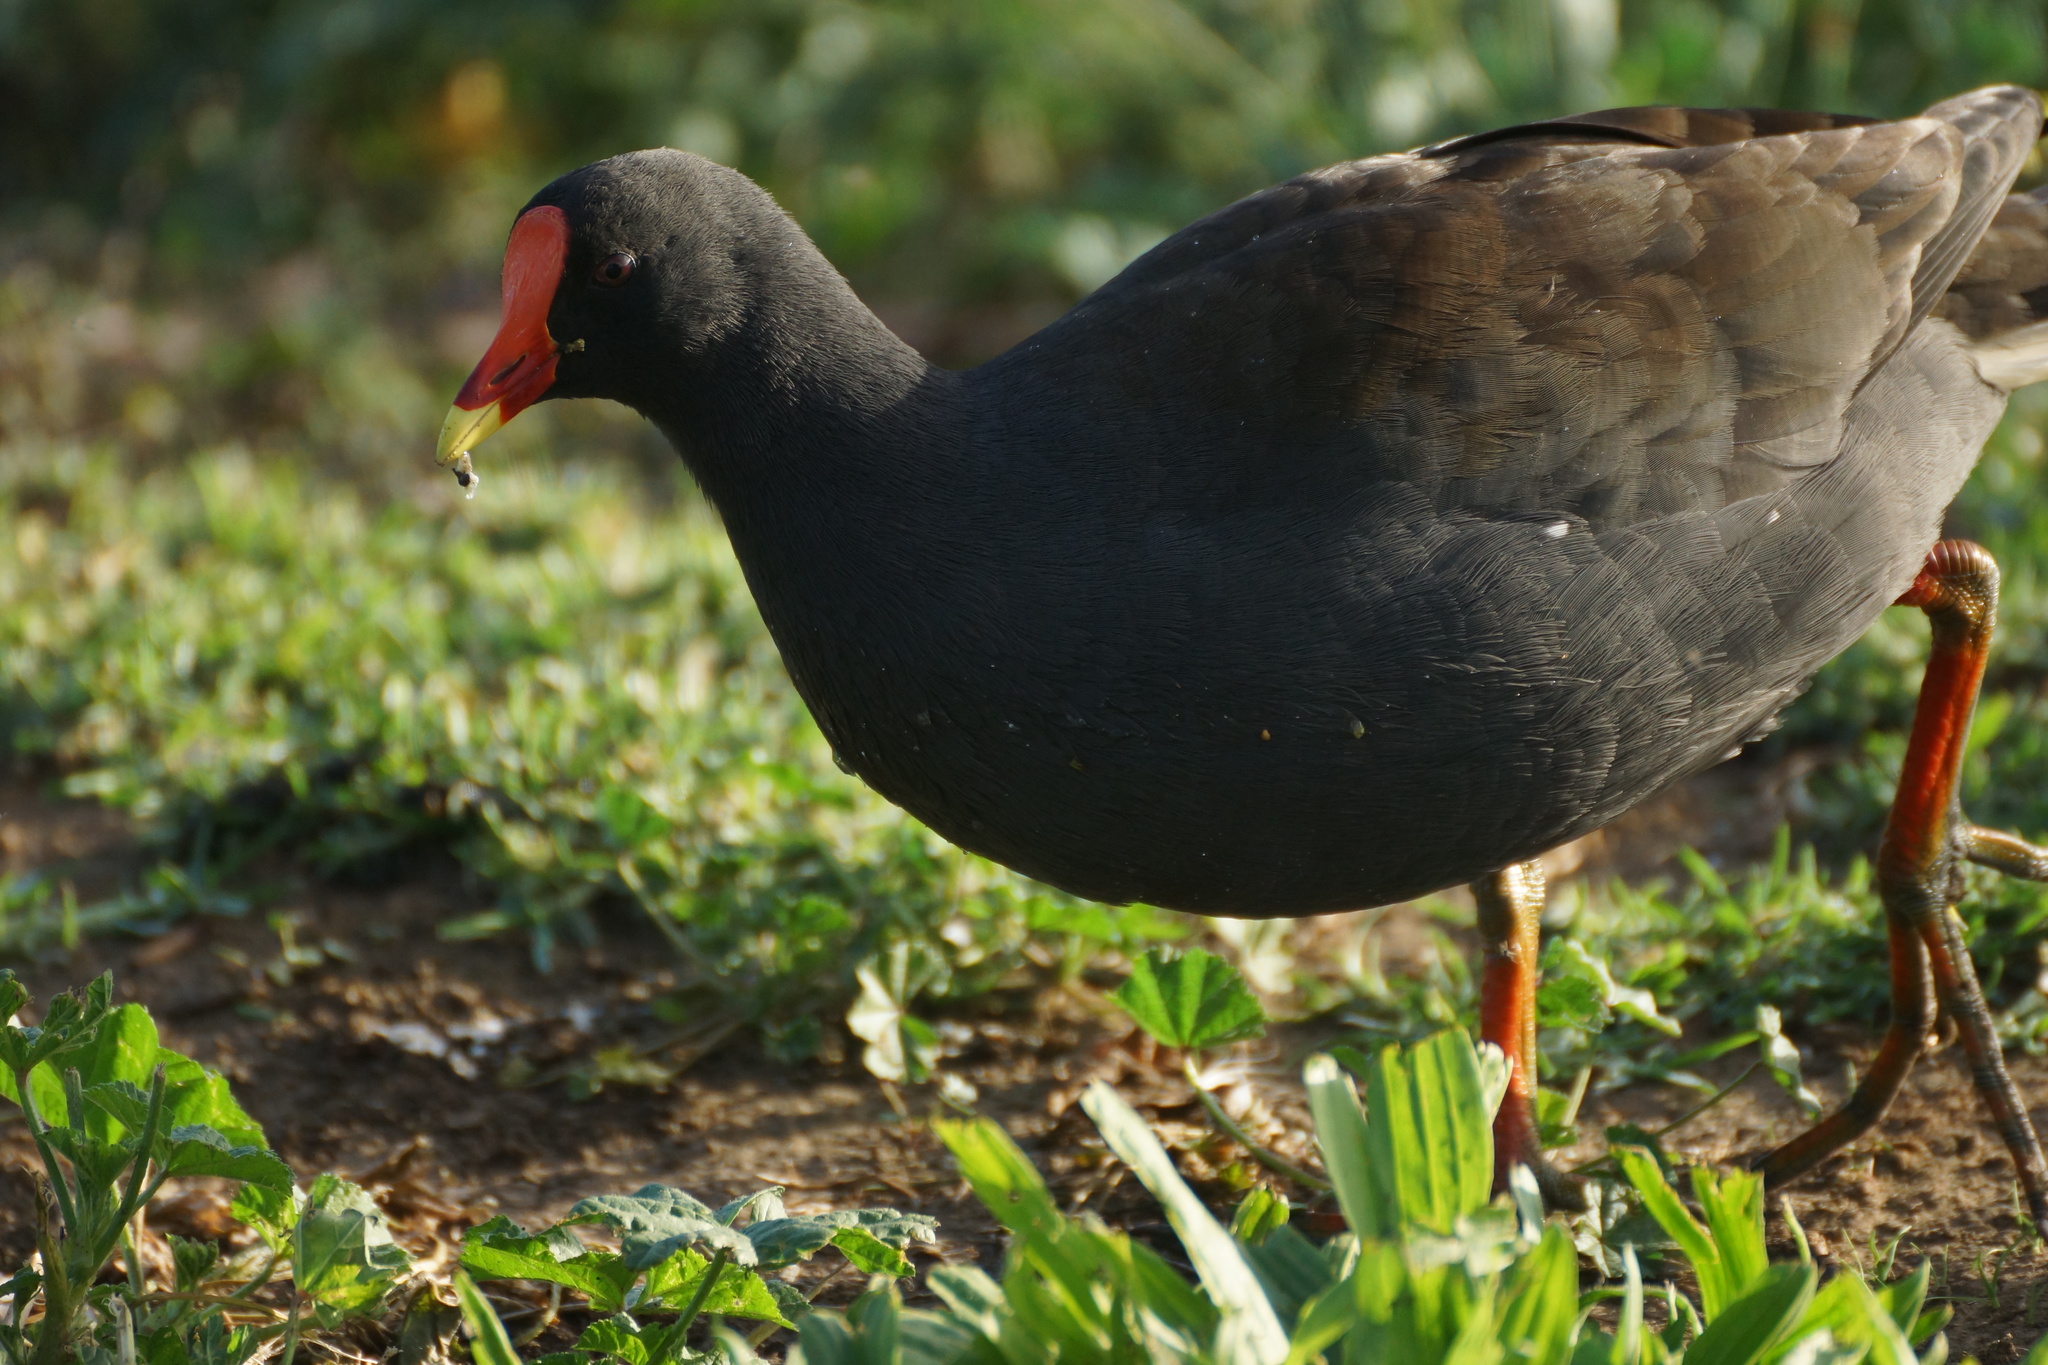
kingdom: Animalia
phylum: Chordata
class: Aves
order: Gruiformes
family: Rallidae
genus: Gallinula
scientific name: Gallinula tenebrosa
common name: Dusky moorhen
